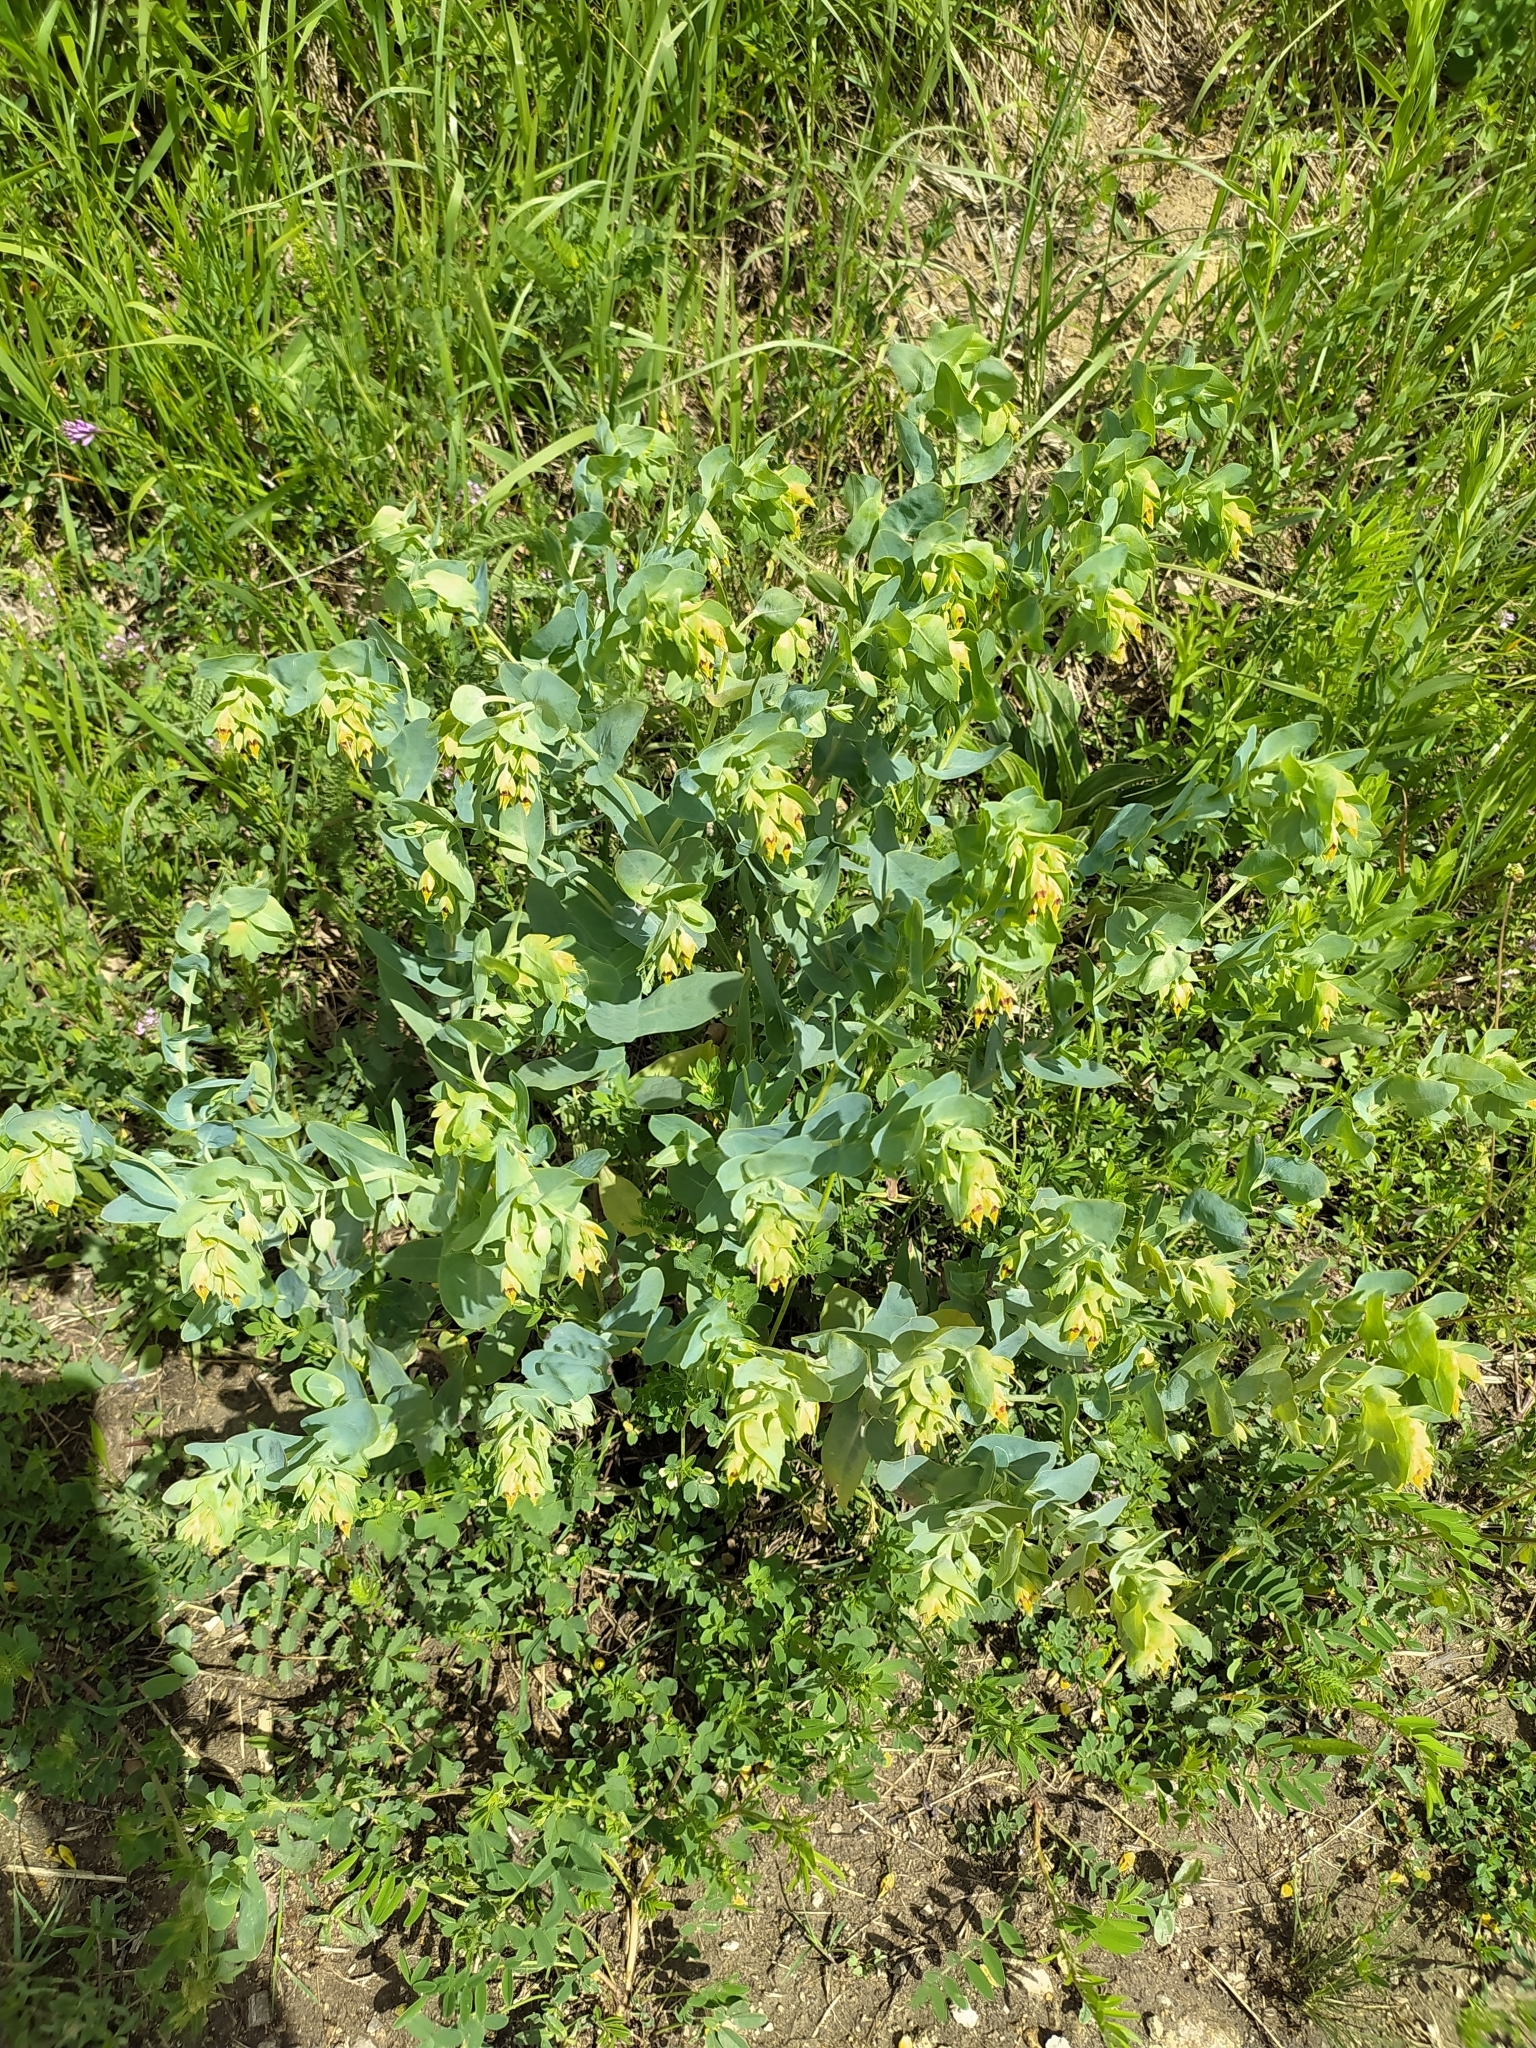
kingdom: Plantae
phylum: Tracheophyta
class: Magnoliopsida
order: Boraginales
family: Boraginaceae
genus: Cerinthe
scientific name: Cerinthe minor
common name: Lesser honeywort
